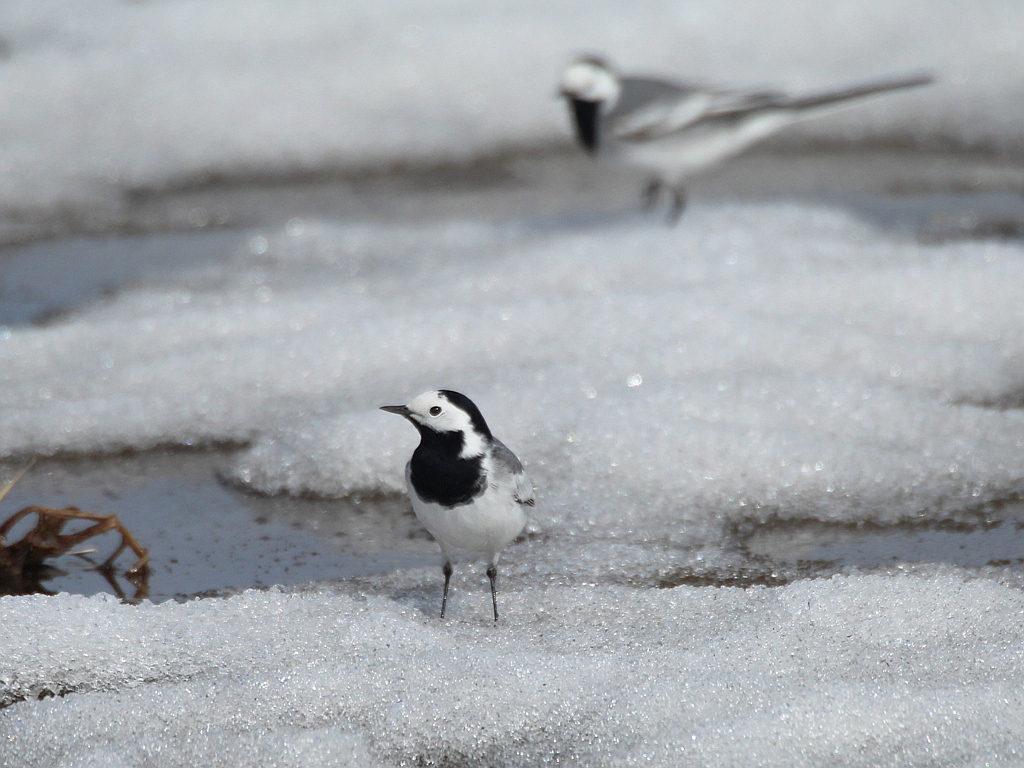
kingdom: Animalia
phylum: Chordata
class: Aves
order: Passeriformes
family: Motacillidae
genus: Motacilla
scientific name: Motacilla alba
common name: White wagtail
